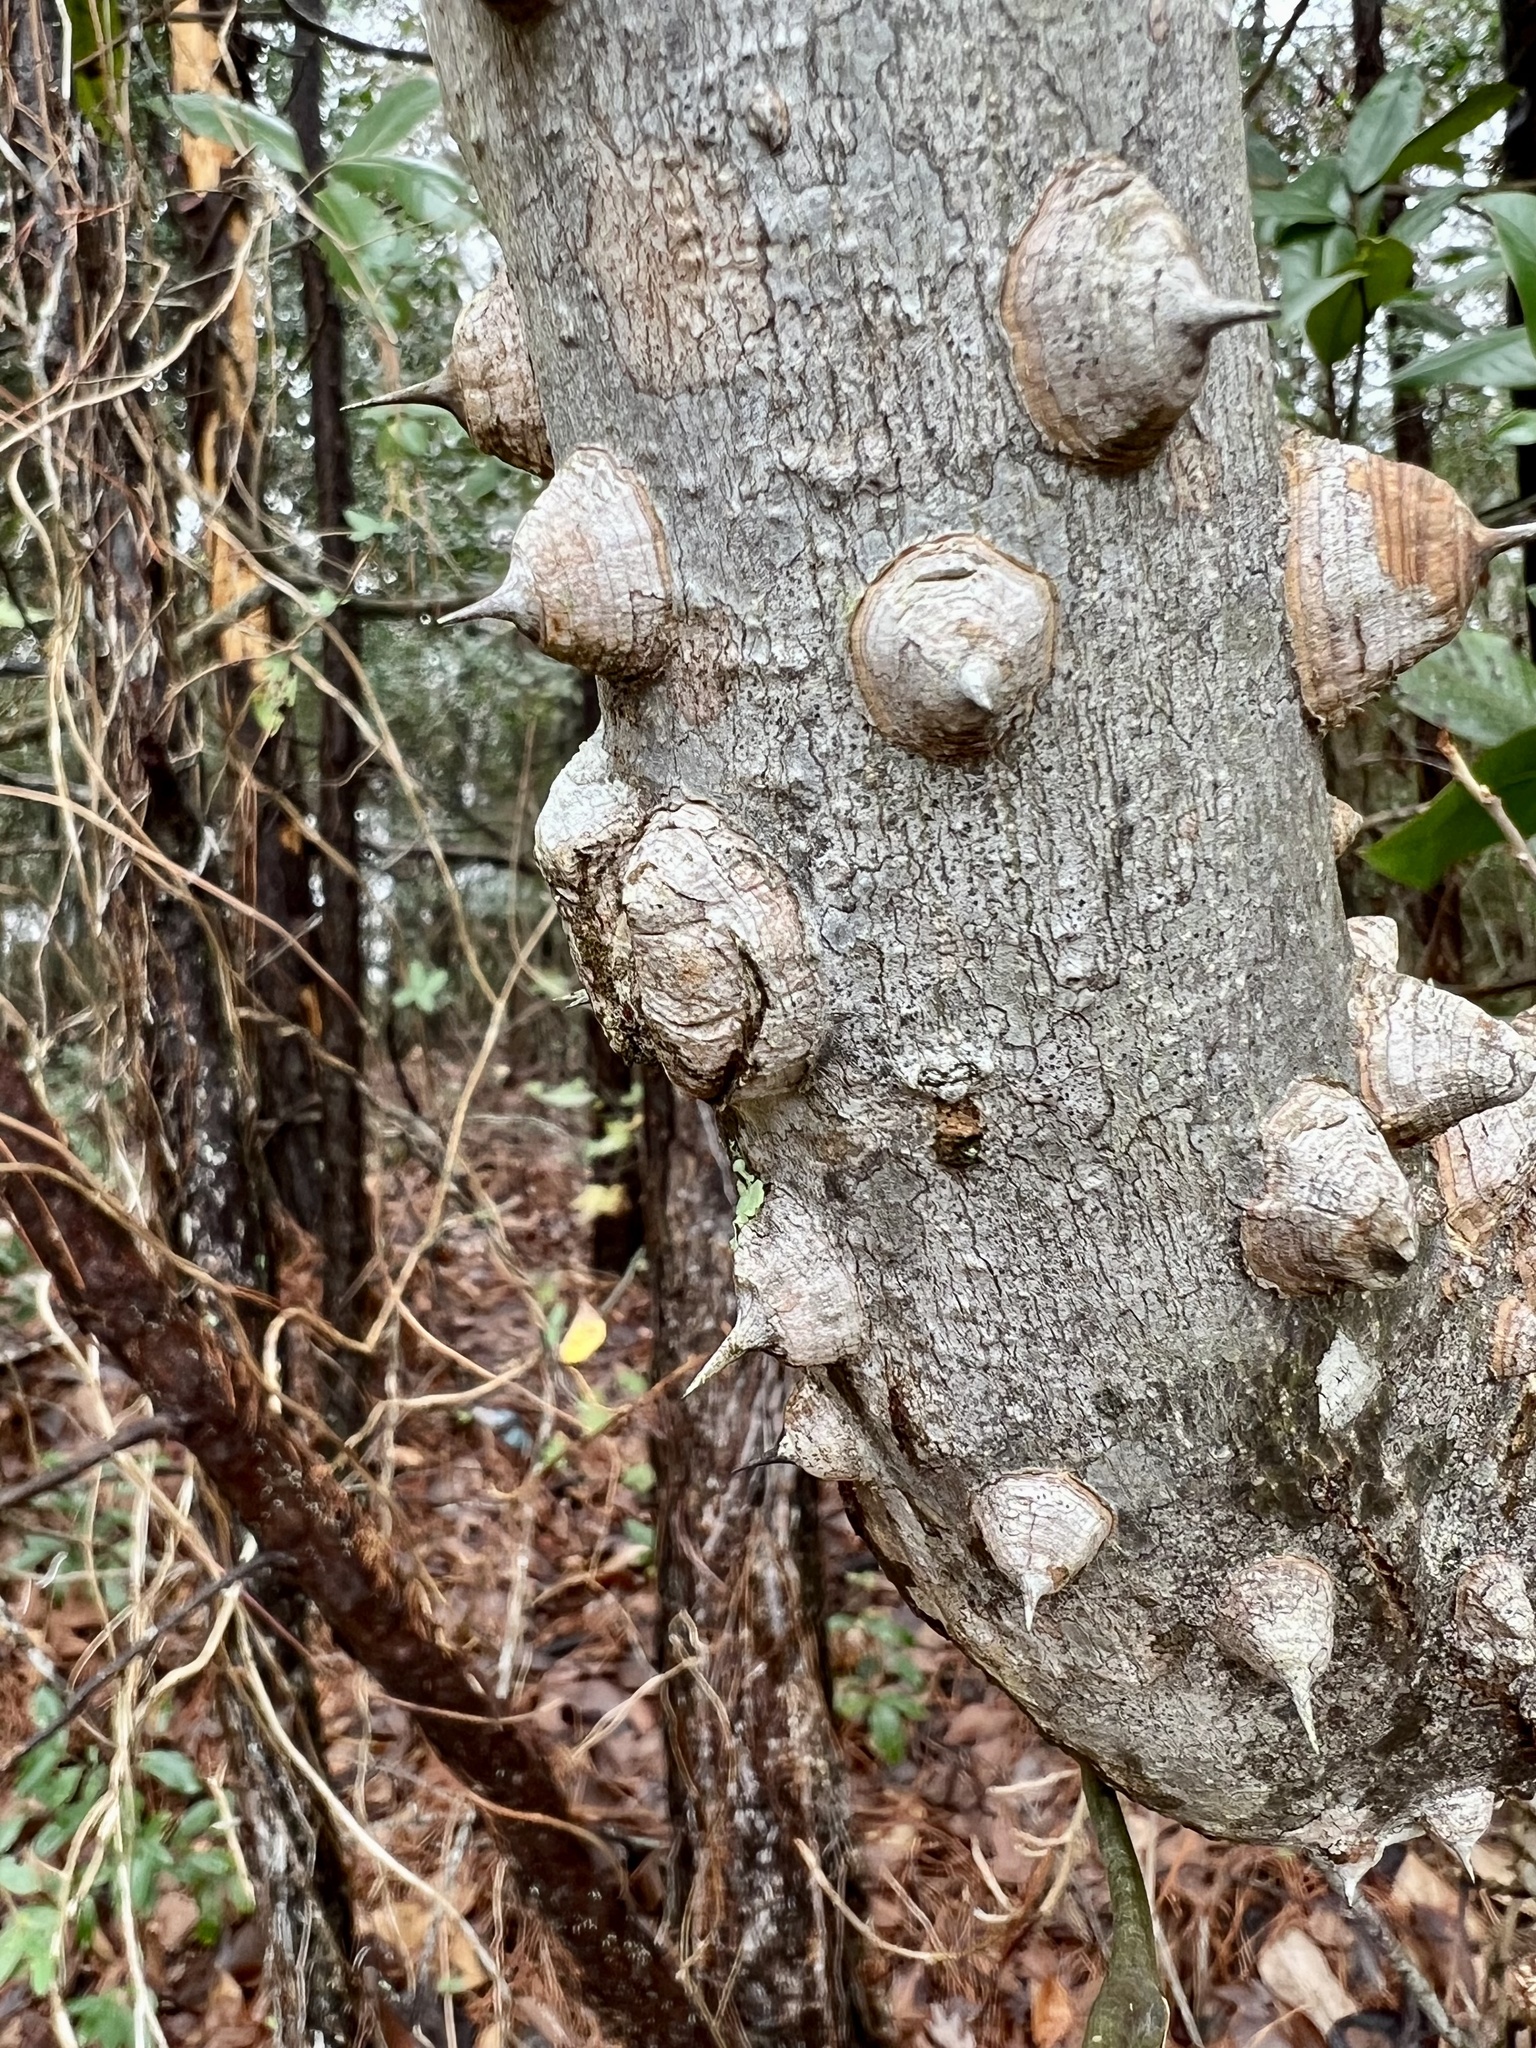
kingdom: Plantae
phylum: Tracheophyta
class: Magnoliopsida
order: Sapindales
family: Rutaceae
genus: Zanthoxylum
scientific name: Zanthoxylum clava-herculis
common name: Hercules'-club
